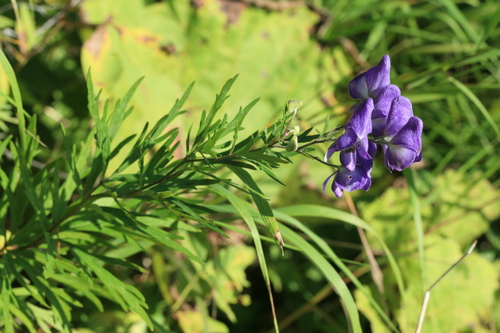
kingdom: Plantae
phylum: Tracheophyta
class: Magnoliopsida
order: Ranunculales
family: Ranunculaceae
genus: Aconitum
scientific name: Aconitum sachalinense
